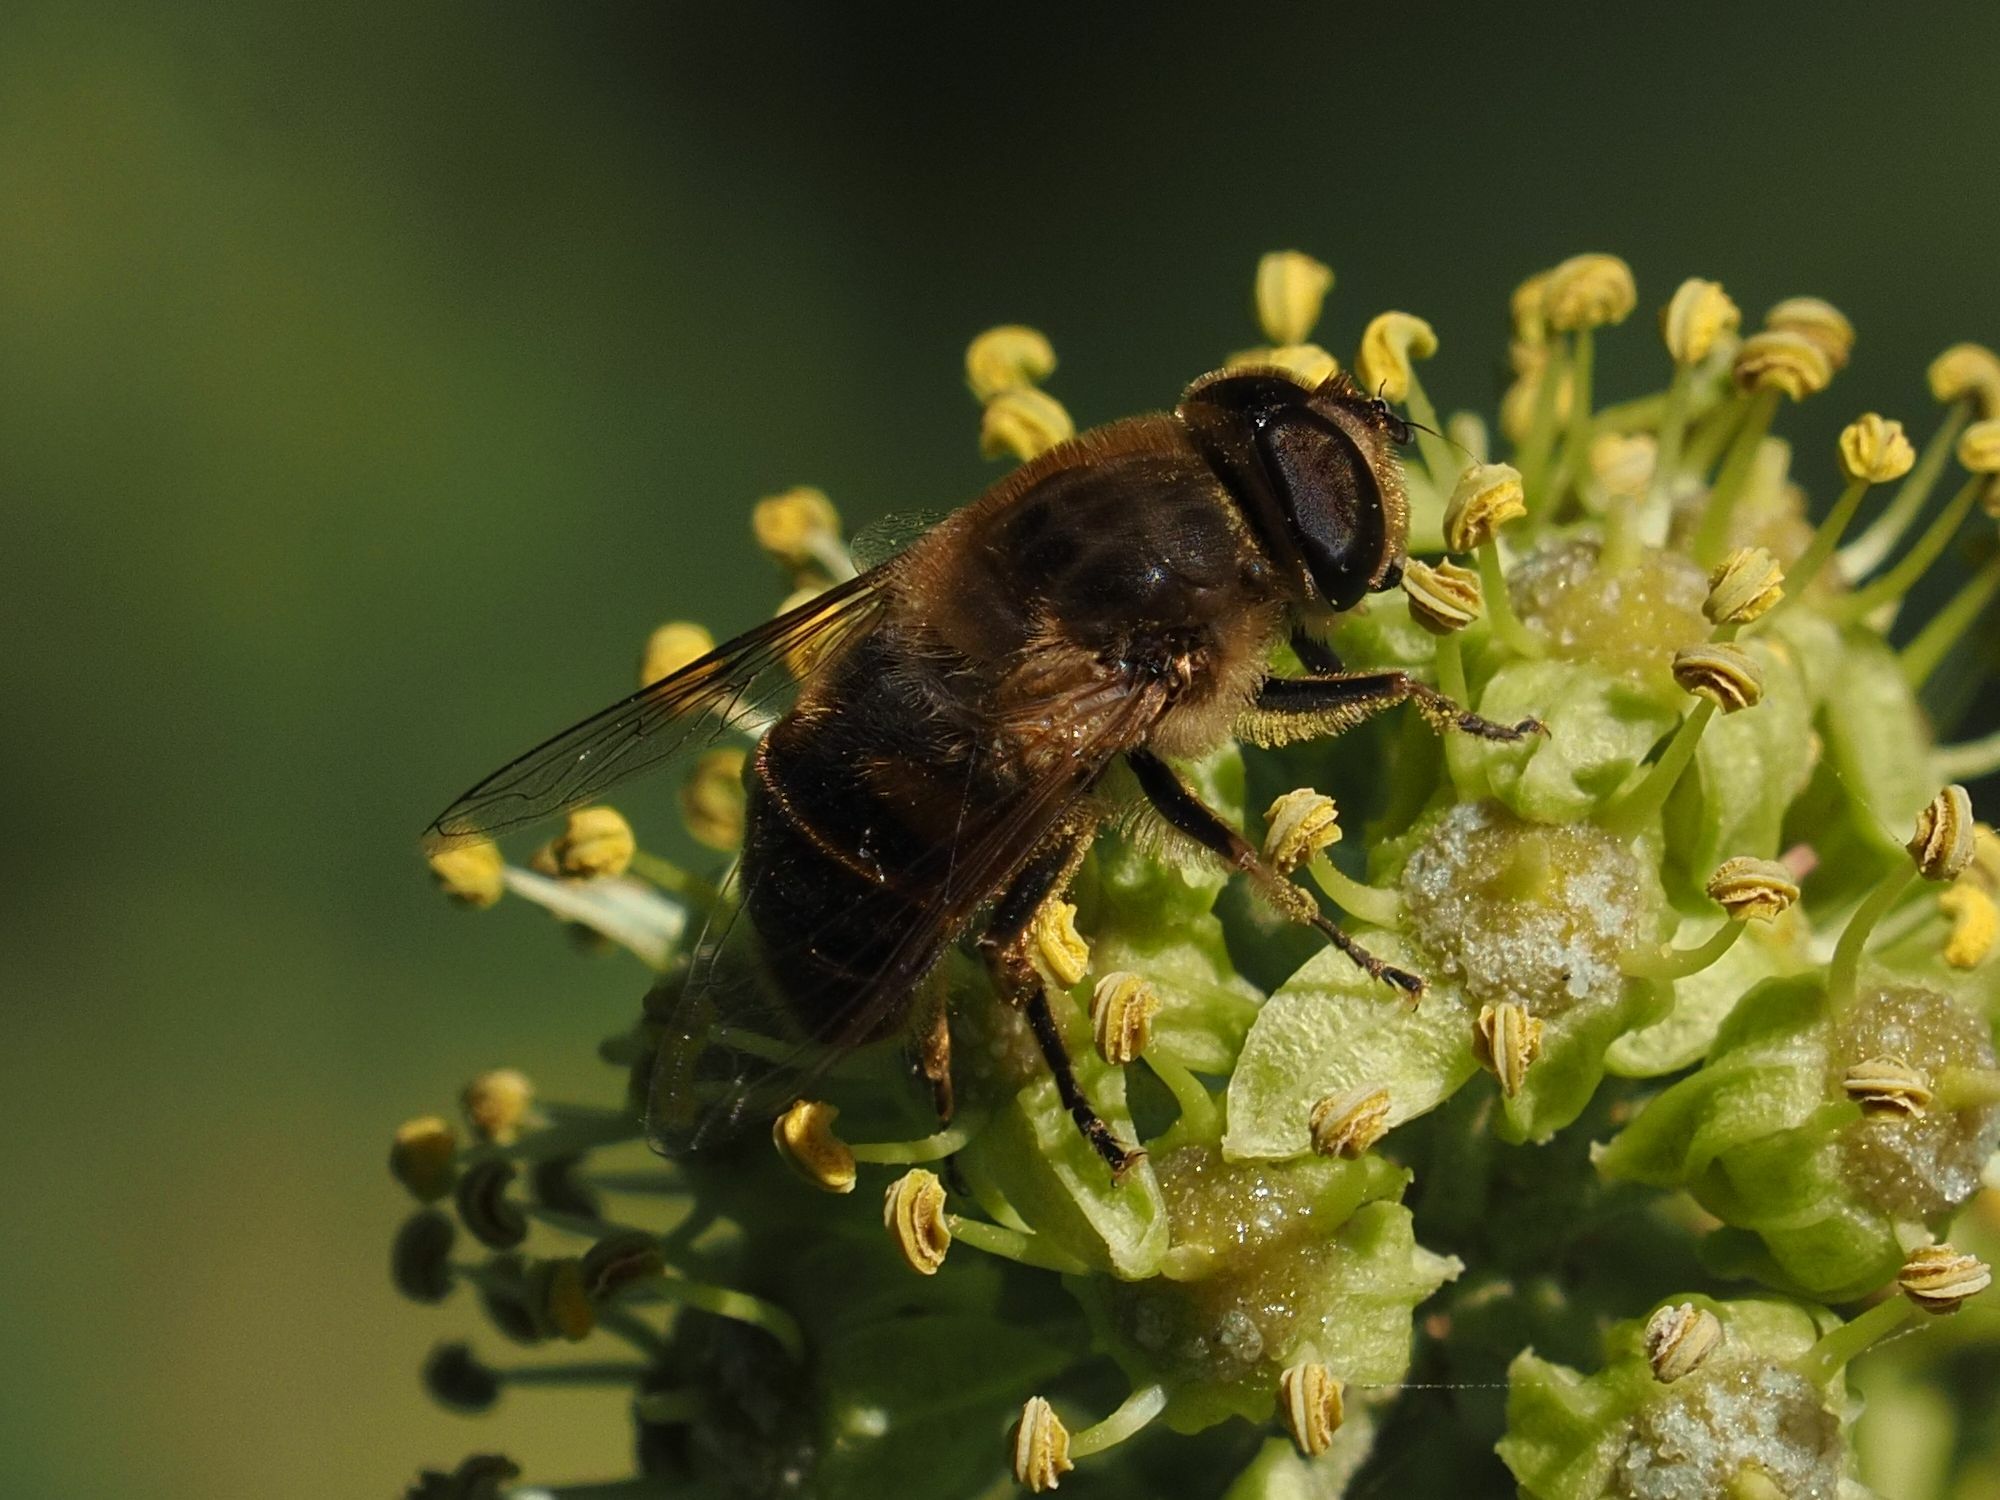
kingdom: Animalia
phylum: Arthropoda
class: Insecta
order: Diptera
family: Syrphidae
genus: Eristalis
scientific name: Eristalis tenax
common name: Drone fly
